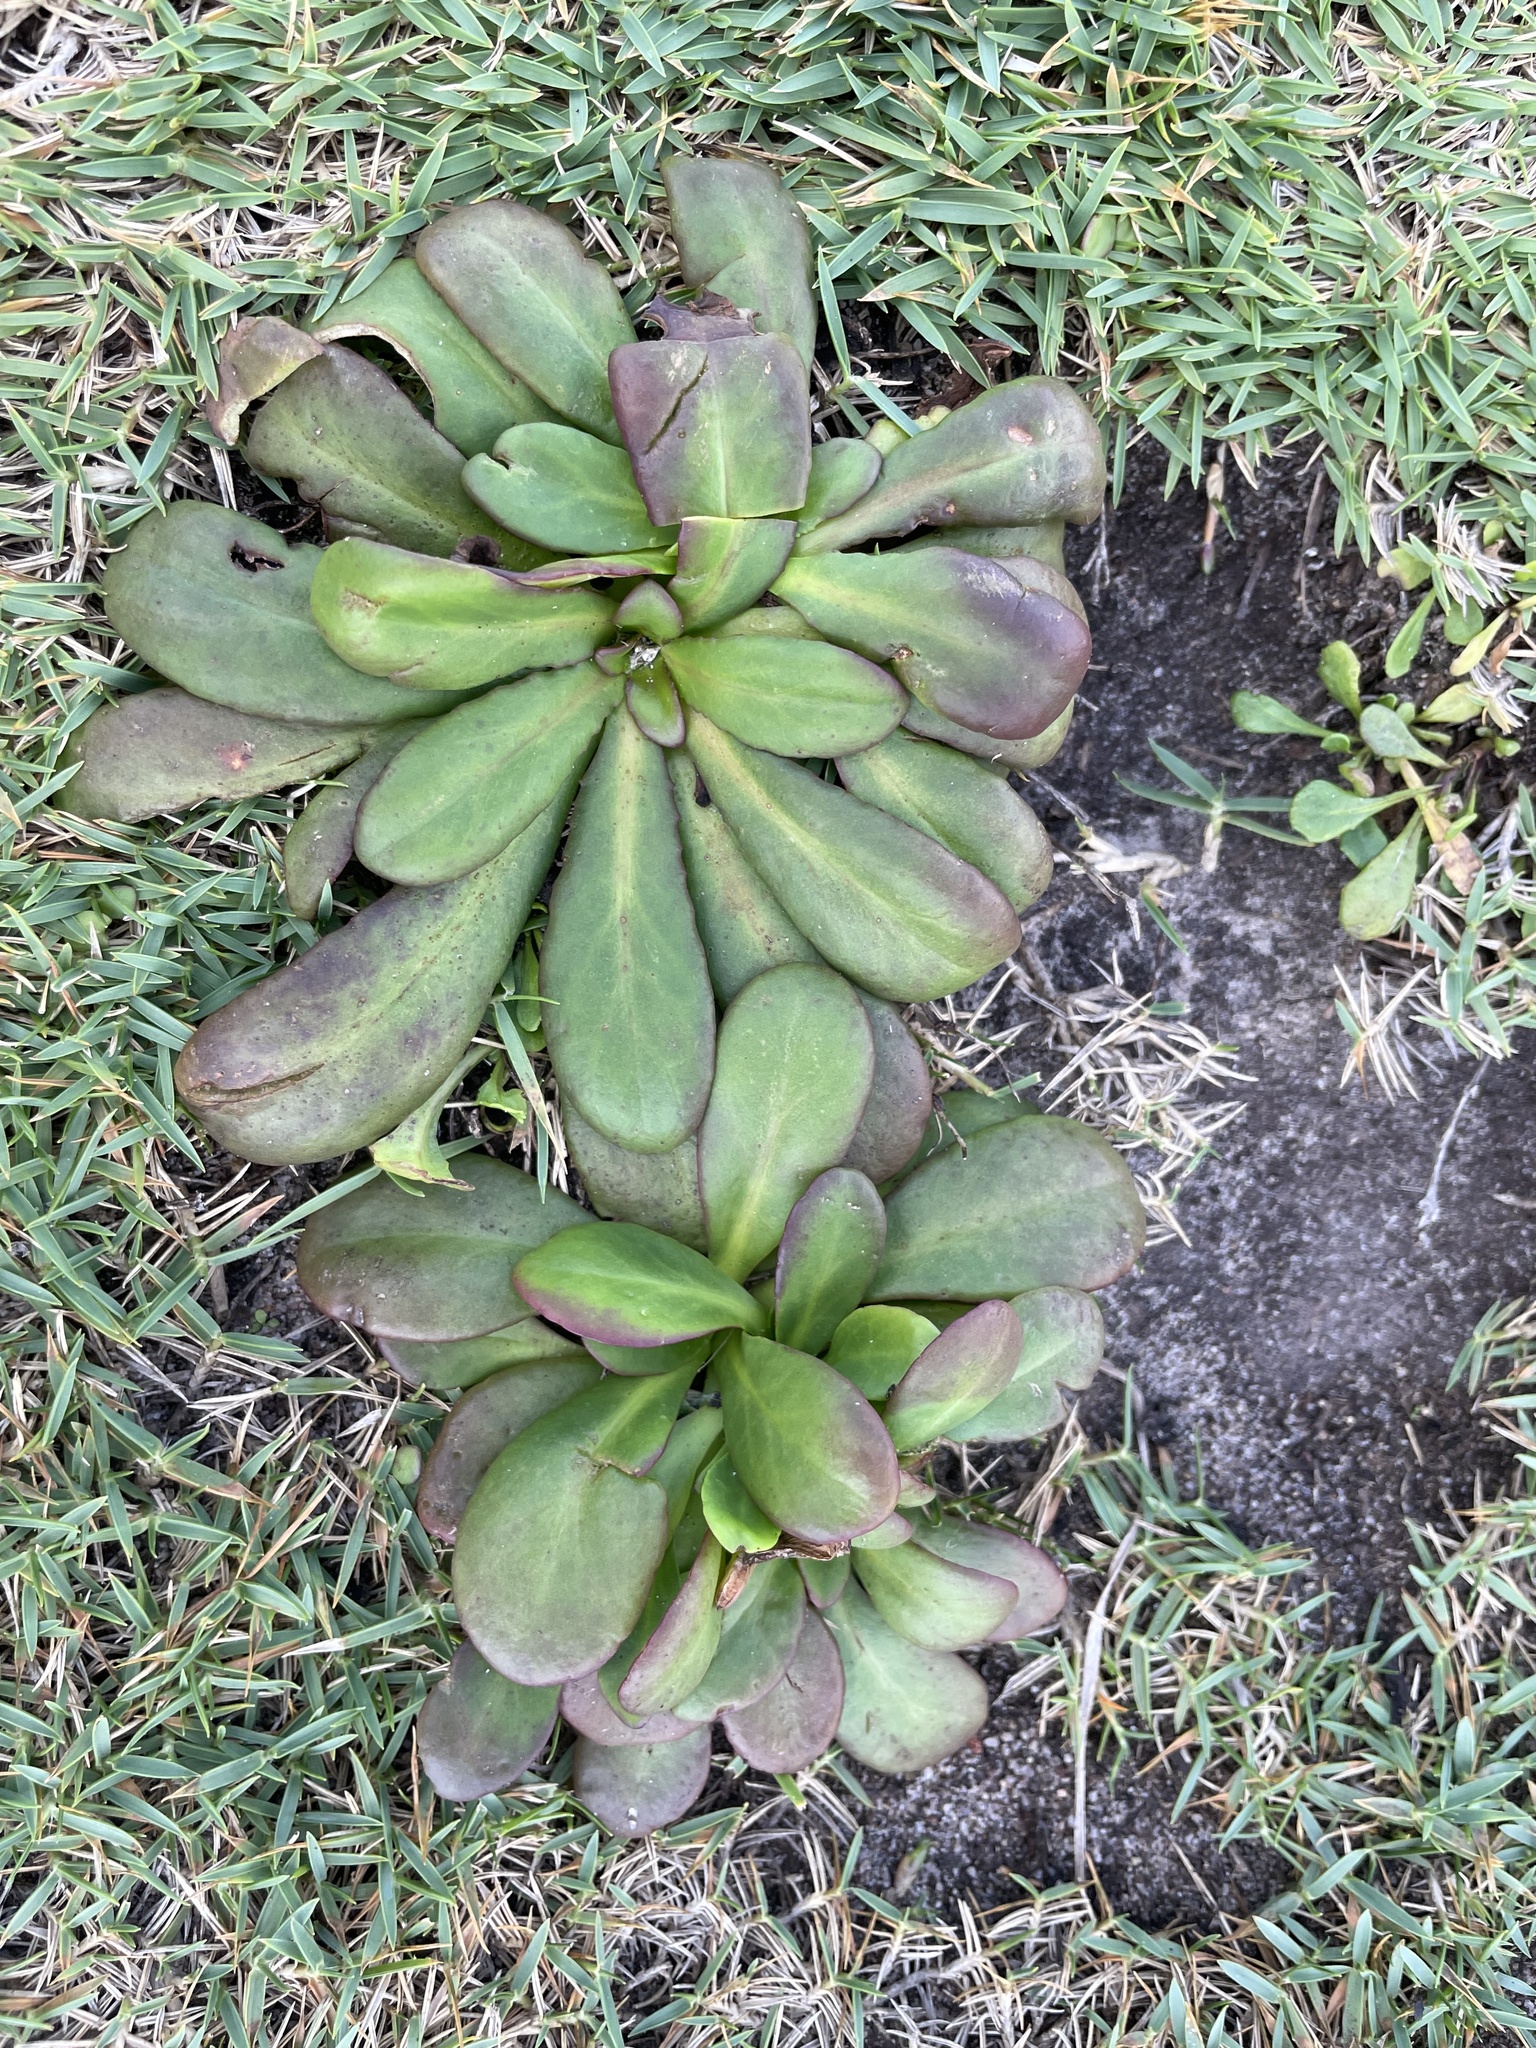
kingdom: Plantae
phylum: Tracheophyta
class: Magnoliopsida
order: Asterales
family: Goodeniaceae
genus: Goodenia
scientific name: Goodenia mystrophylla
